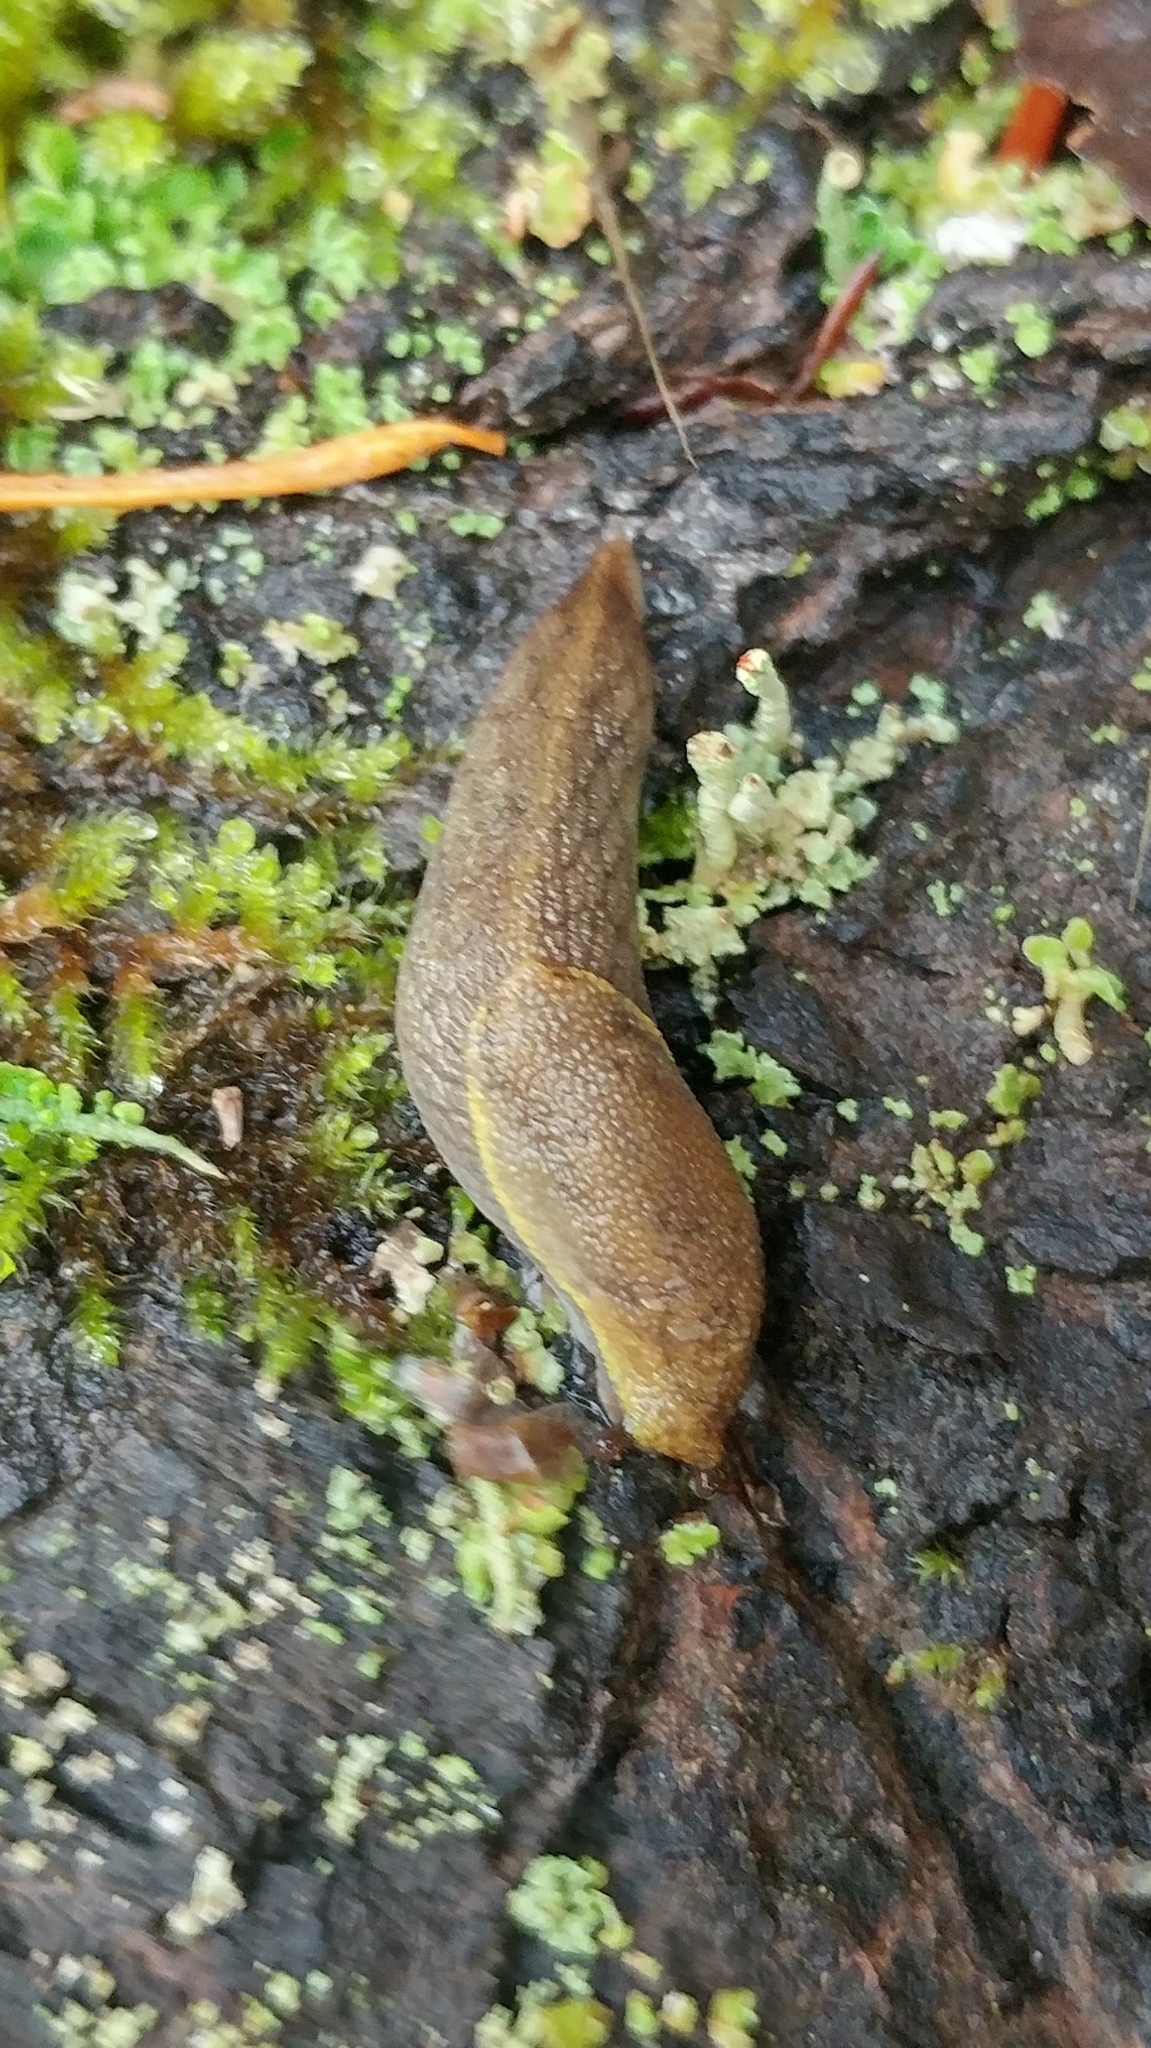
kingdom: Animalia
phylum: Mollusca
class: Gastropoda
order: Stylommatophora
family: Ariolimacidae
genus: Prophysaon
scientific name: Prophysaon foliolatum
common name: Yellow-bordered taildropper
